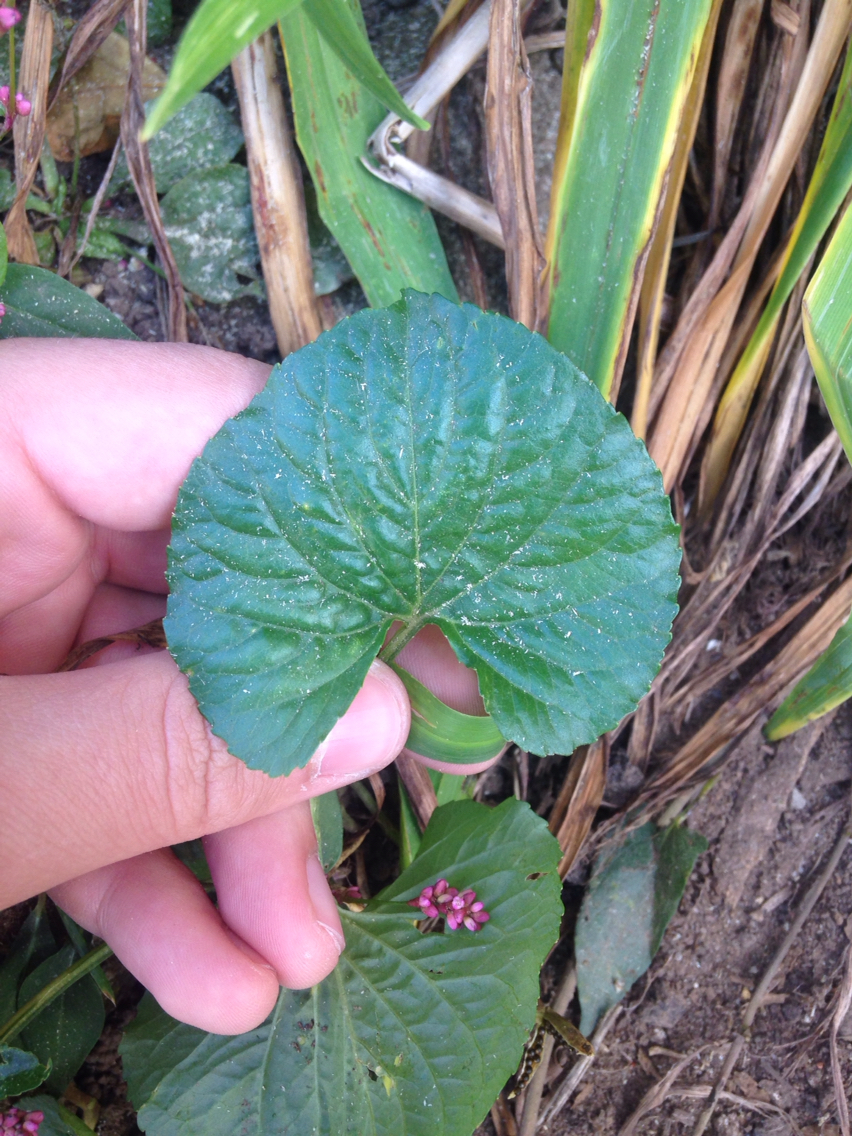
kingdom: Plantae
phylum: Tracheophyta
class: Magnoliopsida
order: Malpighiales
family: Violaceae
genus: Viola
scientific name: Viola sororia
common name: Dooryard violet
